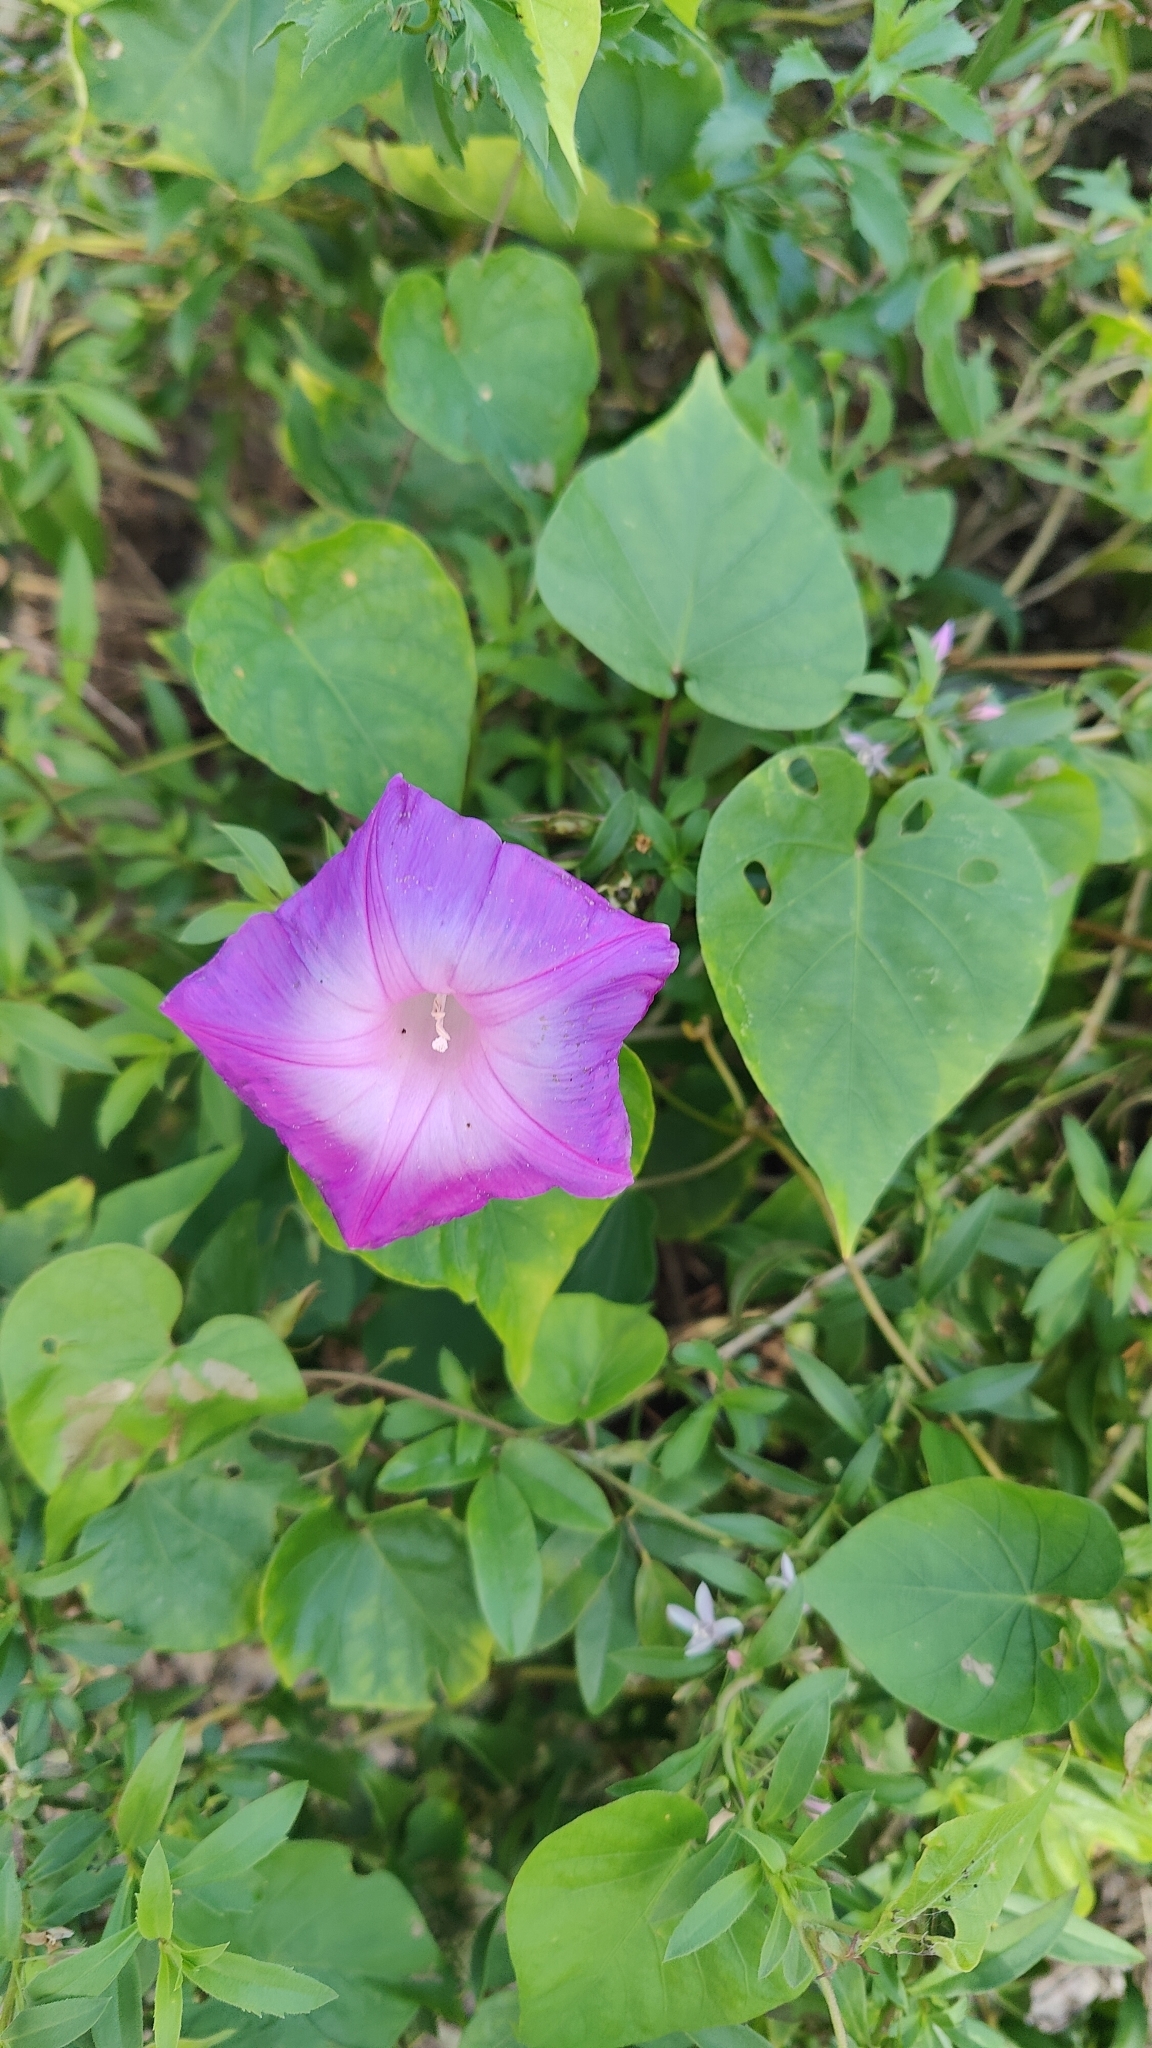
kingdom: Plantae
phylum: Tracheophyta
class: Magnoliopsida
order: Solanales
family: Convolvulaceae
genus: Ipomoea
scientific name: Ipomoea indica
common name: Blue dawnflower
